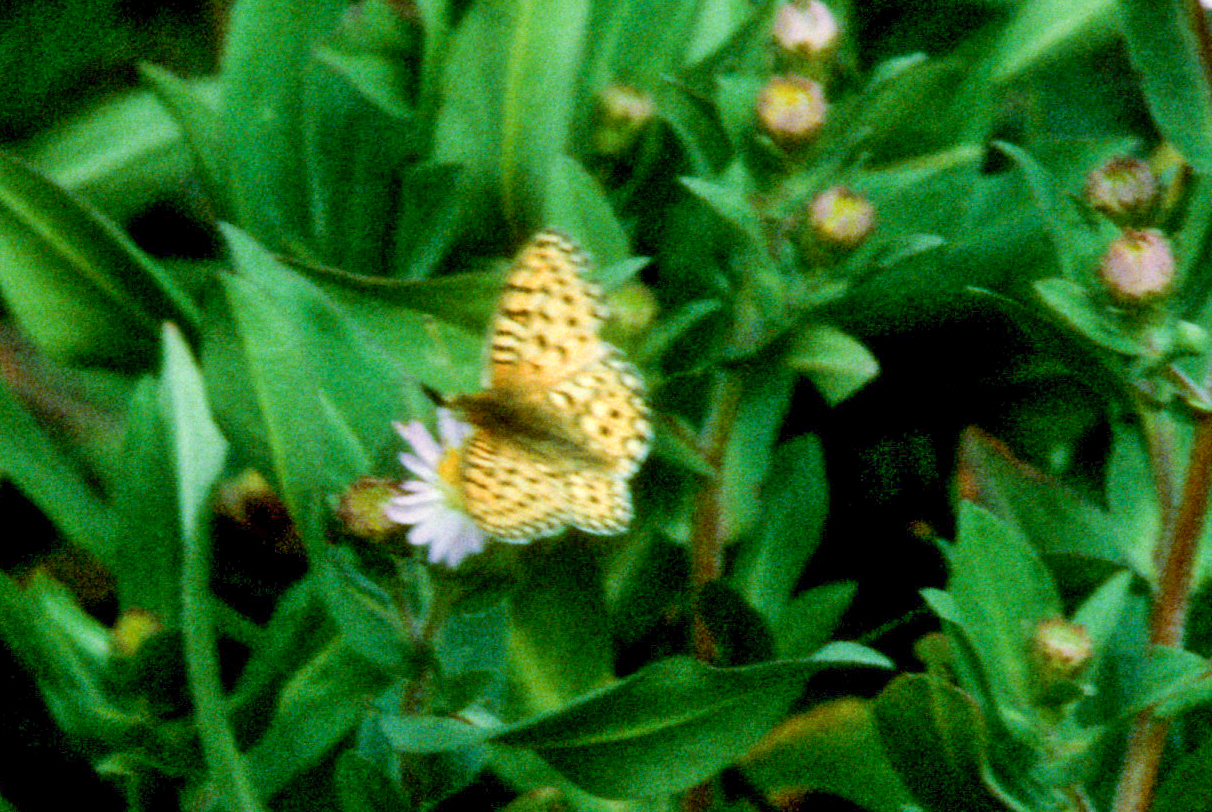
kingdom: Animalia
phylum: Arthropoda
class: Insecta
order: Lepidoptera
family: Nymphalidae
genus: Speyeria
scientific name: Speyeria mormonia
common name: Mormon fritillary
